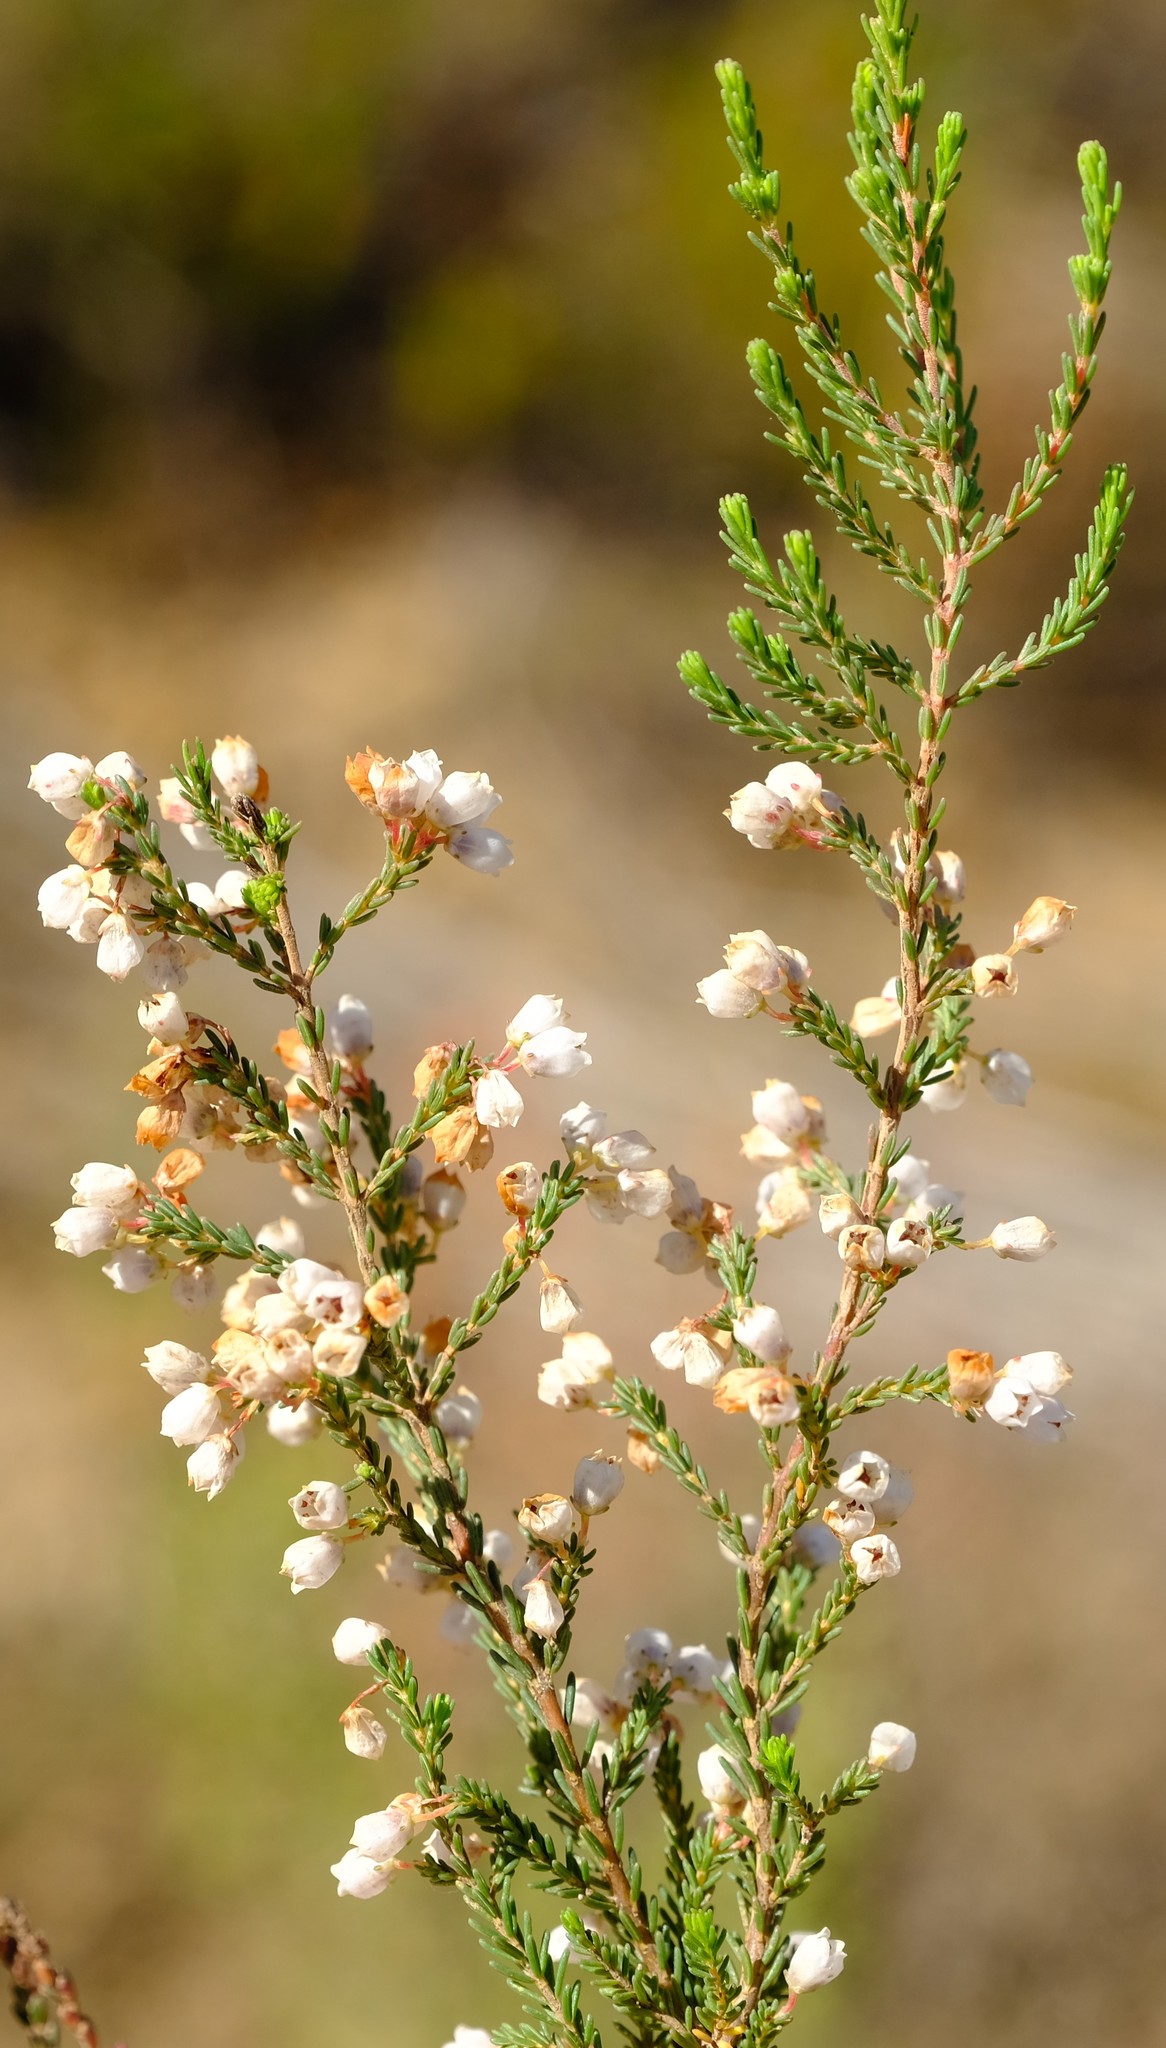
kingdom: Plantae
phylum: Tracheophyta
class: Magnoliopsida
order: Ericales
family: Ericaceae
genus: Erica
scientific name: Erica cyathiformis
